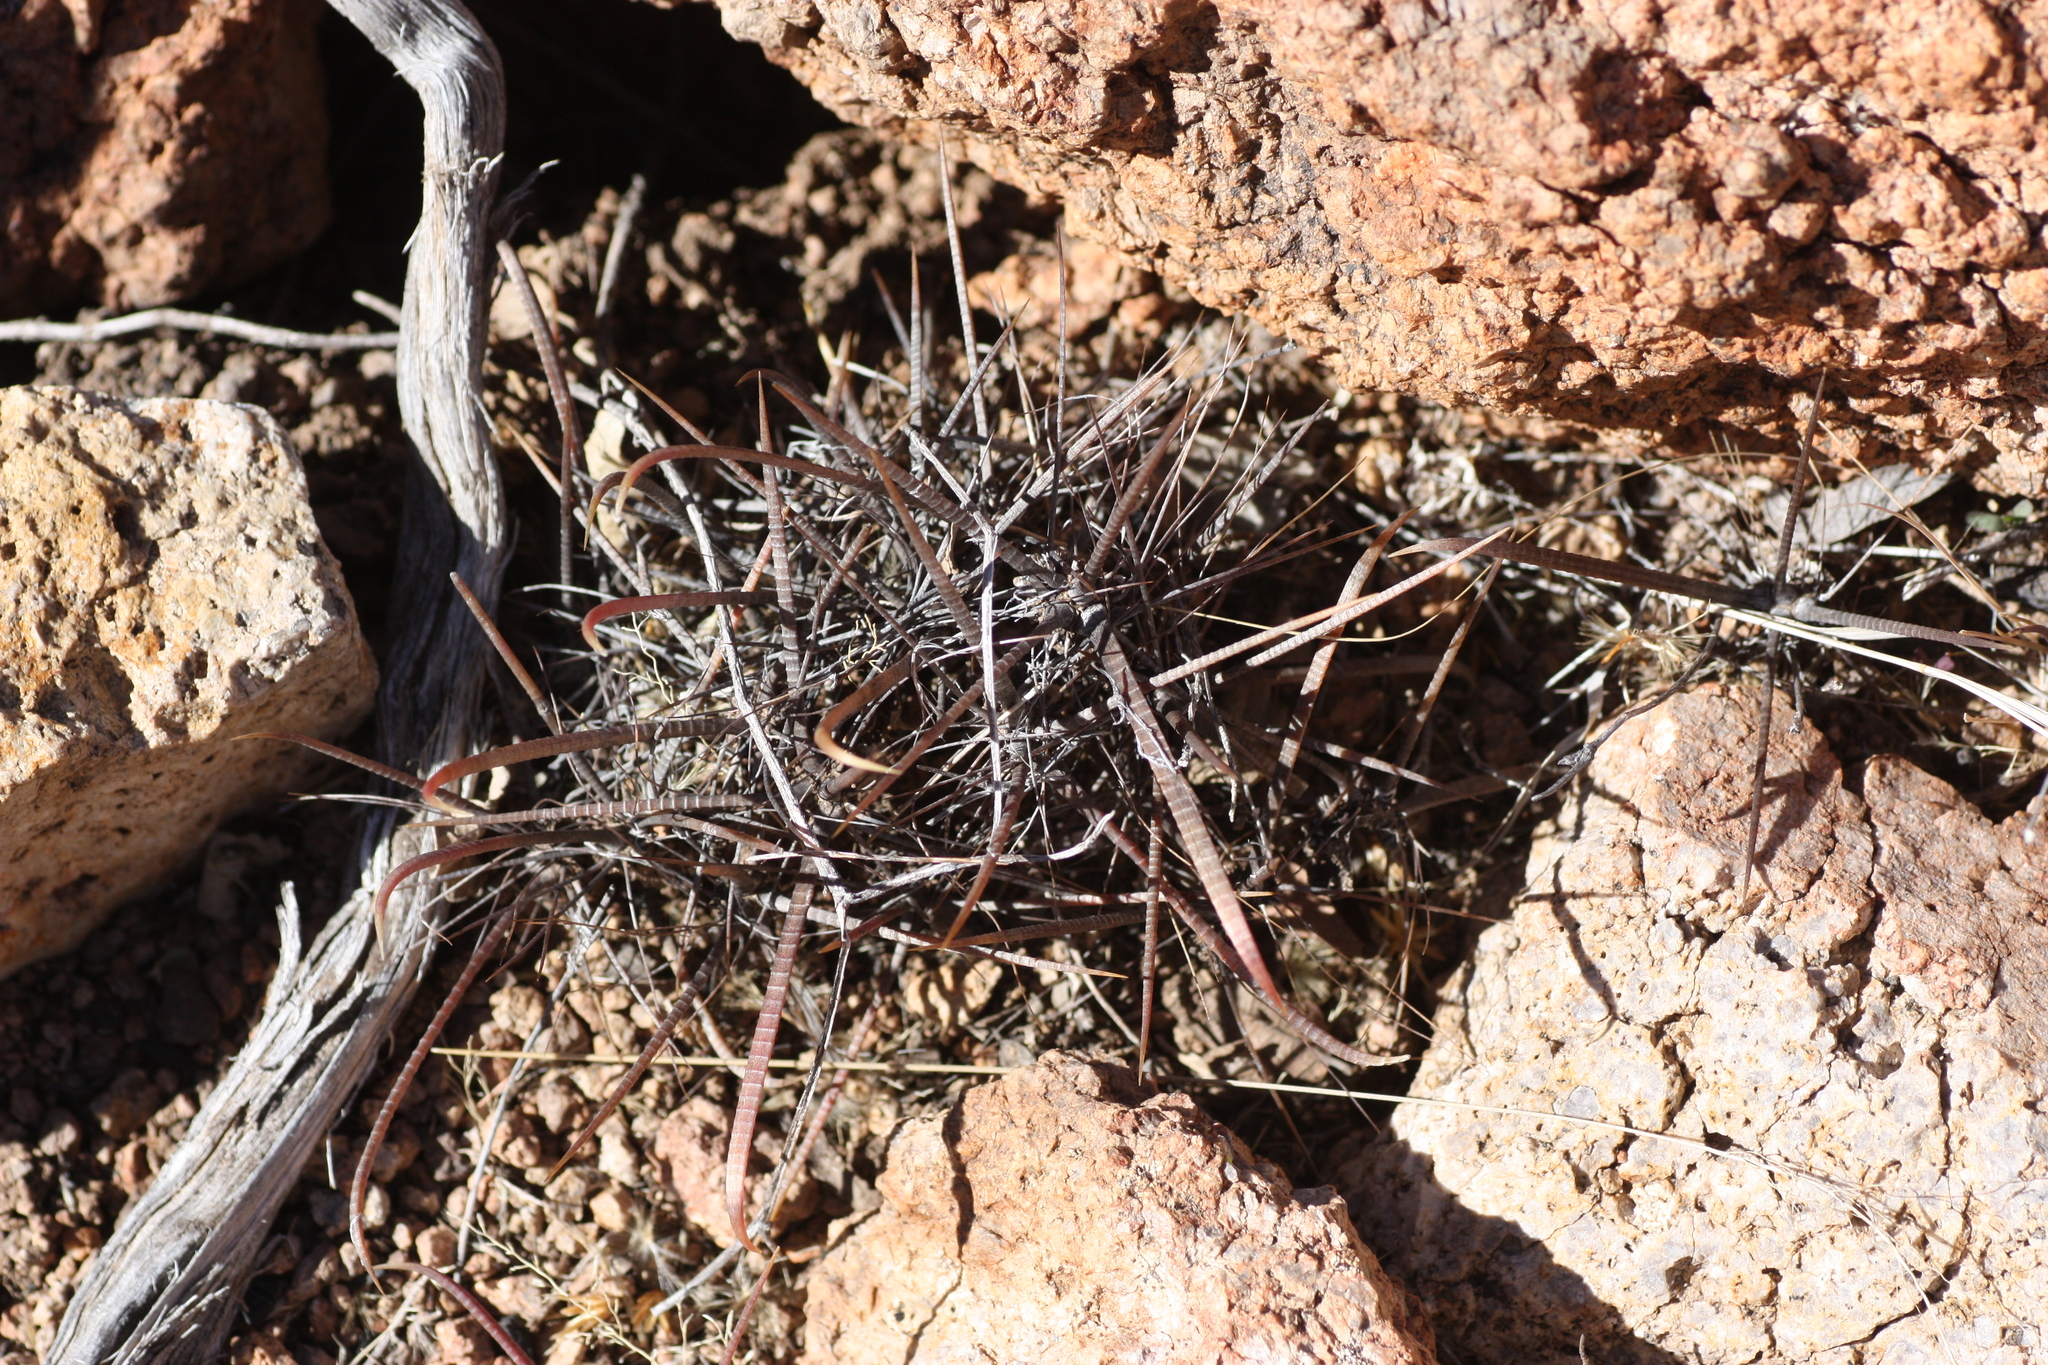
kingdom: Plantae
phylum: Tracheophyta
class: Magnoliopsida
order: Caryophyllales
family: Cactaceae
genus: Ferocactus
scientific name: Ferocactus wislizeni
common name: Candy barrel cactus
